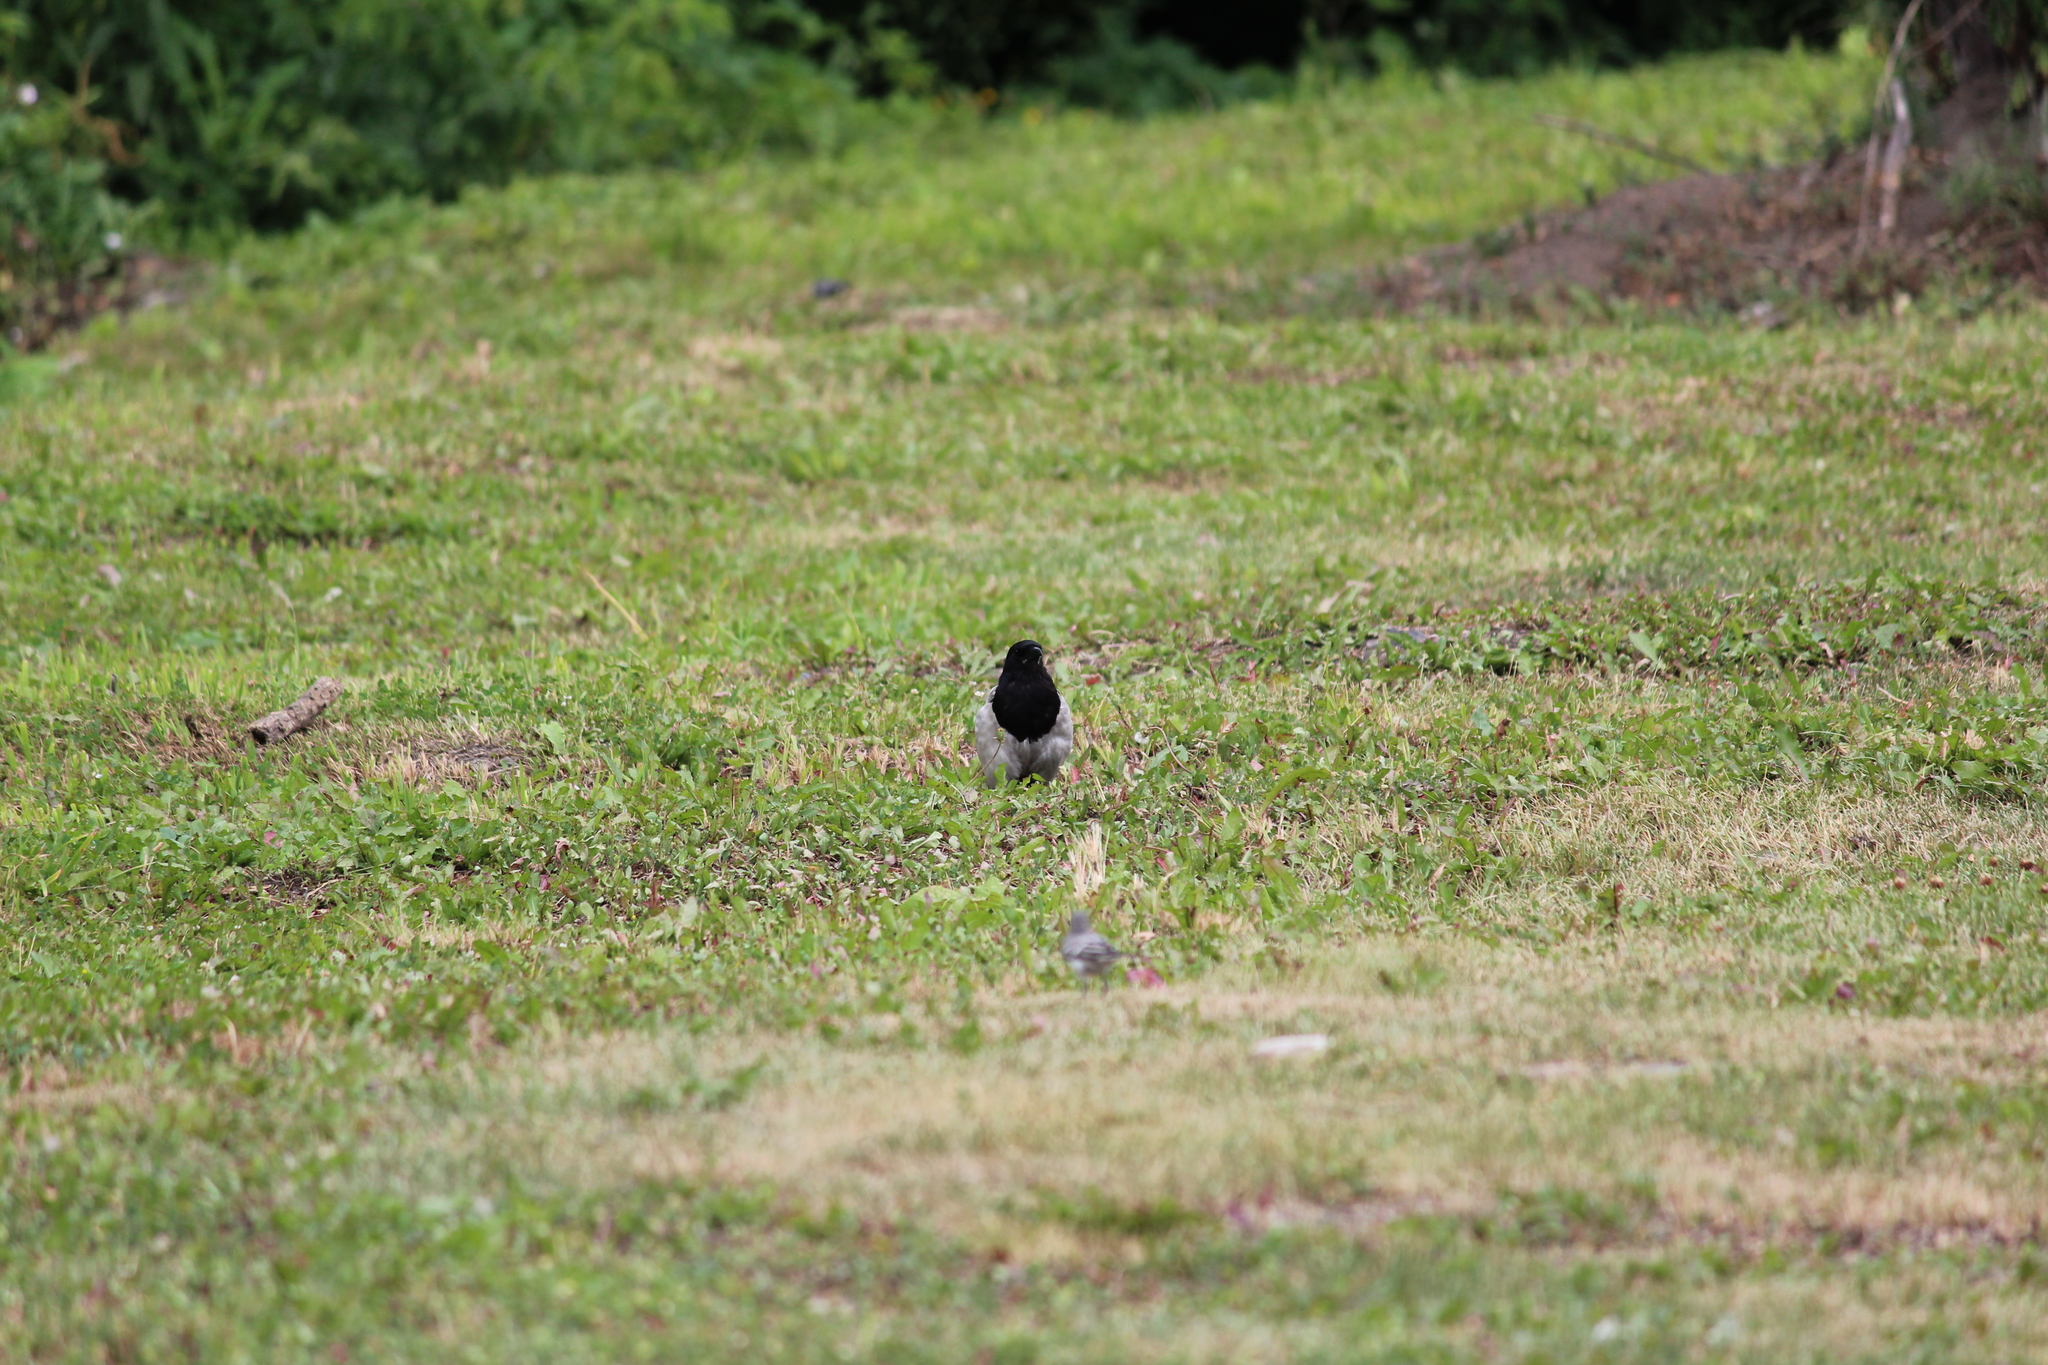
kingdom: Animalia
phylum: Chordata
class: Aves
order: Passeriformes
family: Corvidae
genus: Pica
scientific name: Pica pica
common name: Eurasian magpie
